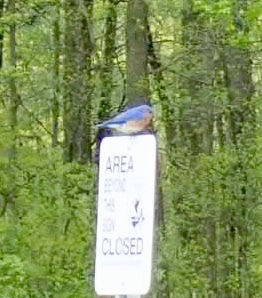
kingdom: Animalia
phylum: Chordata
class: Aves
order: Passeriformes
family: Turdidae
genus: Sialia
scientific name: Sialia sialis
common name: Eastern bluebird
